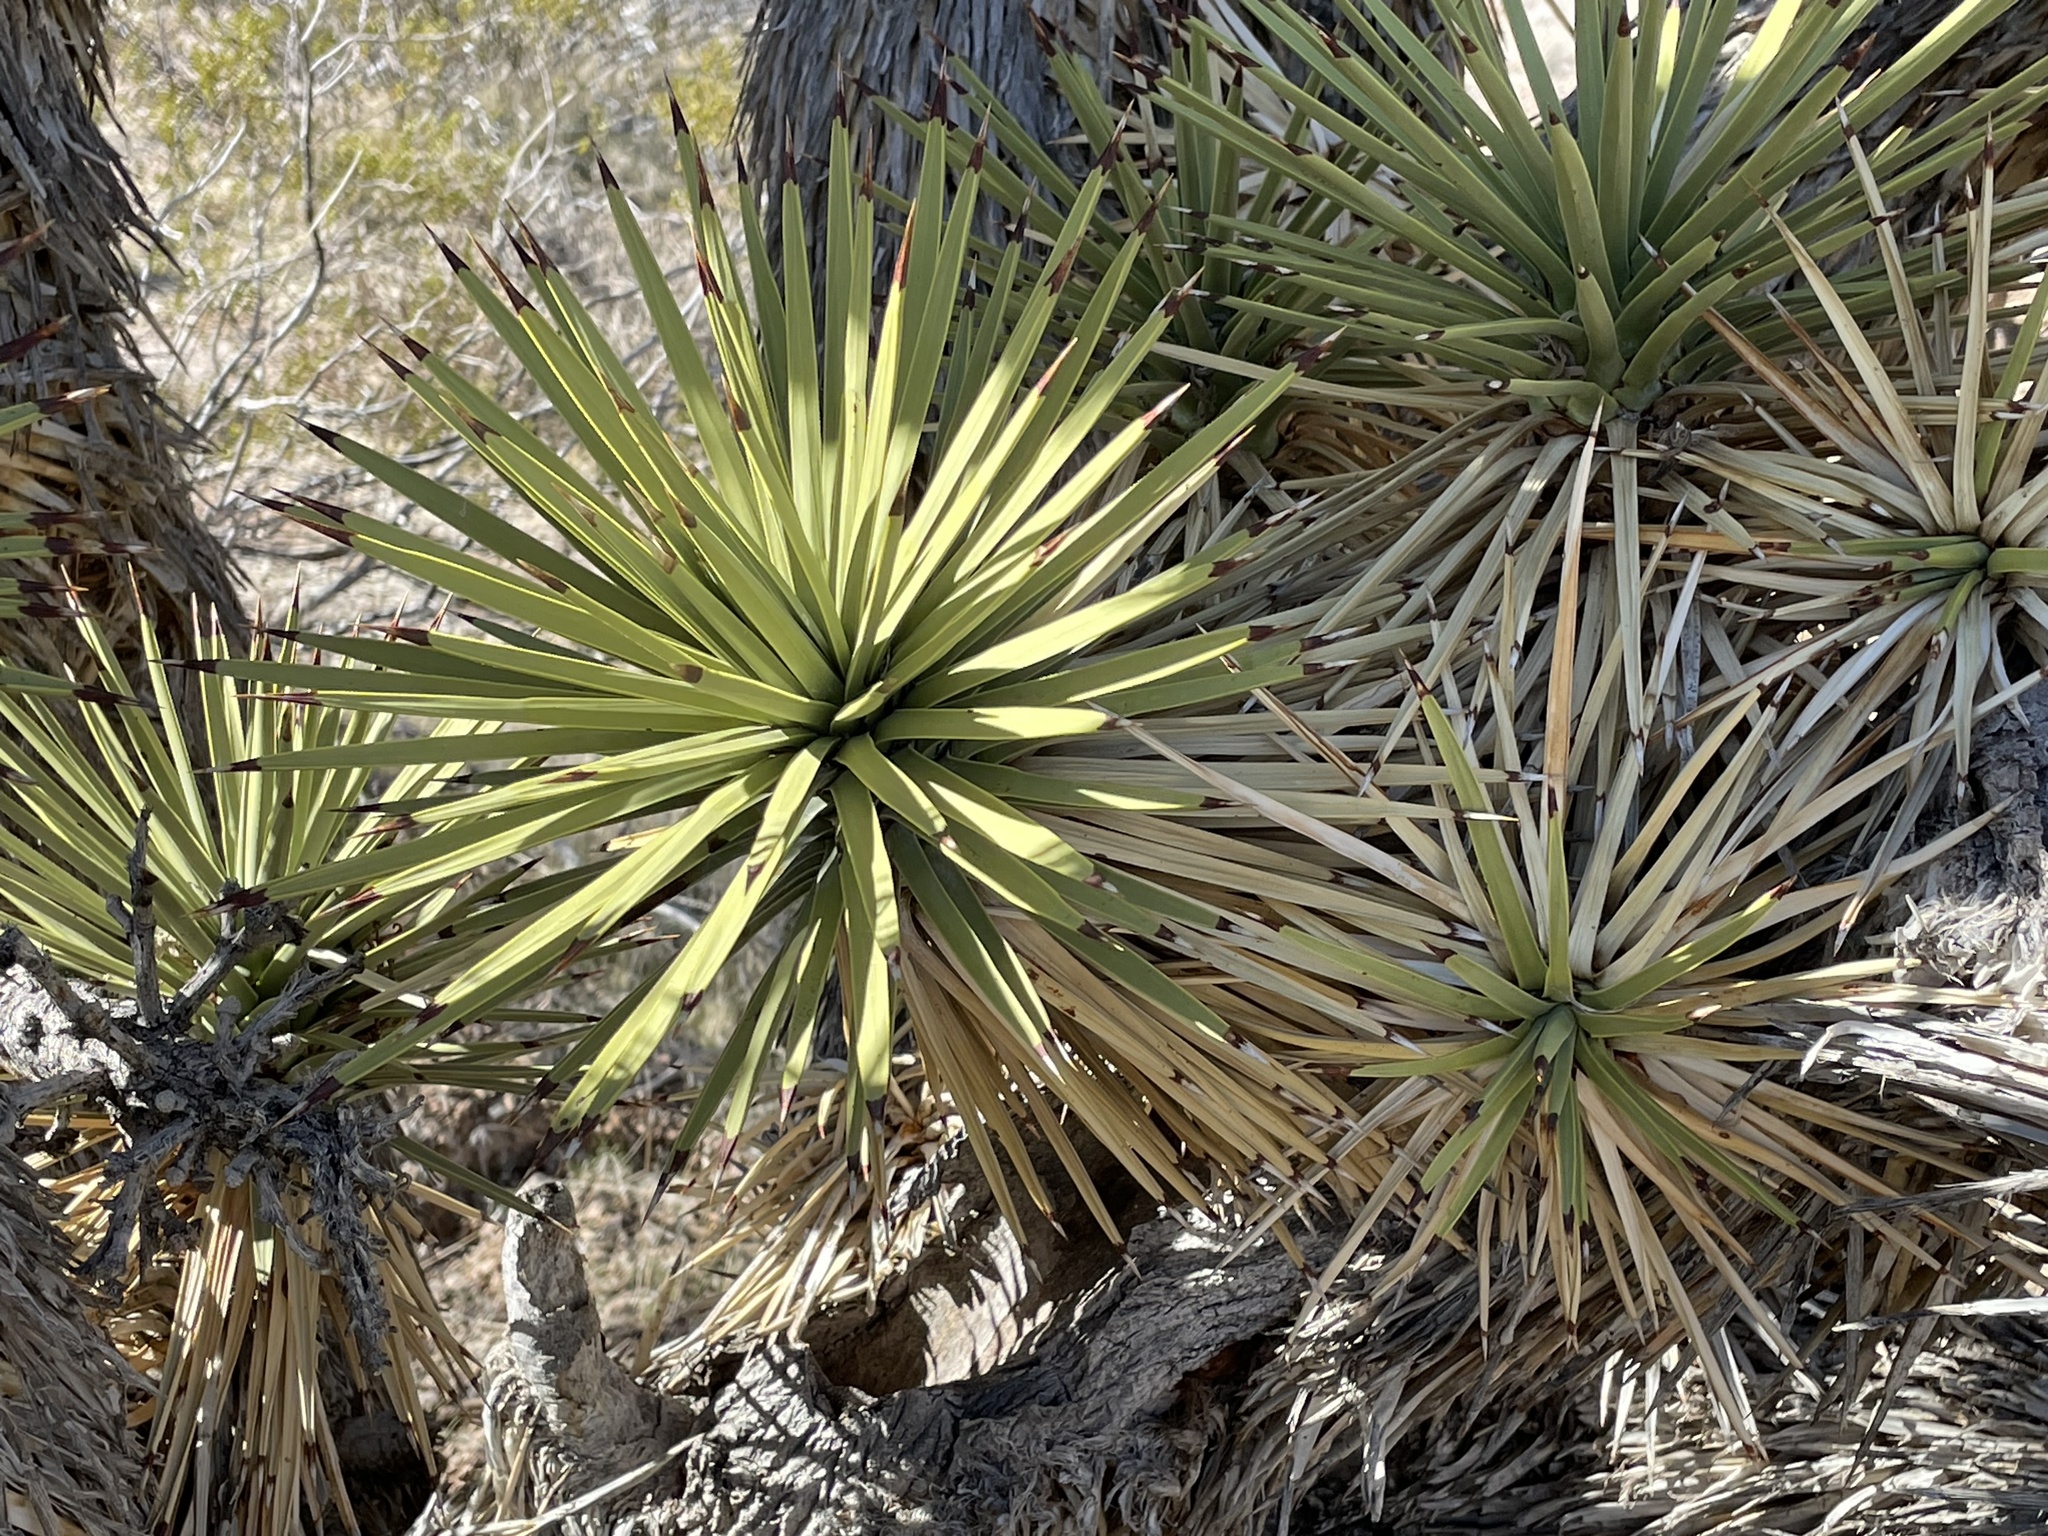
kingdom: Plantae
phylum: Tracheophyta
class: Liliopsida
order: Asparagales
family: Asparagaceae
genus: Yucca
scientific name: Yucca brevifolia
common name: Joshua tree
